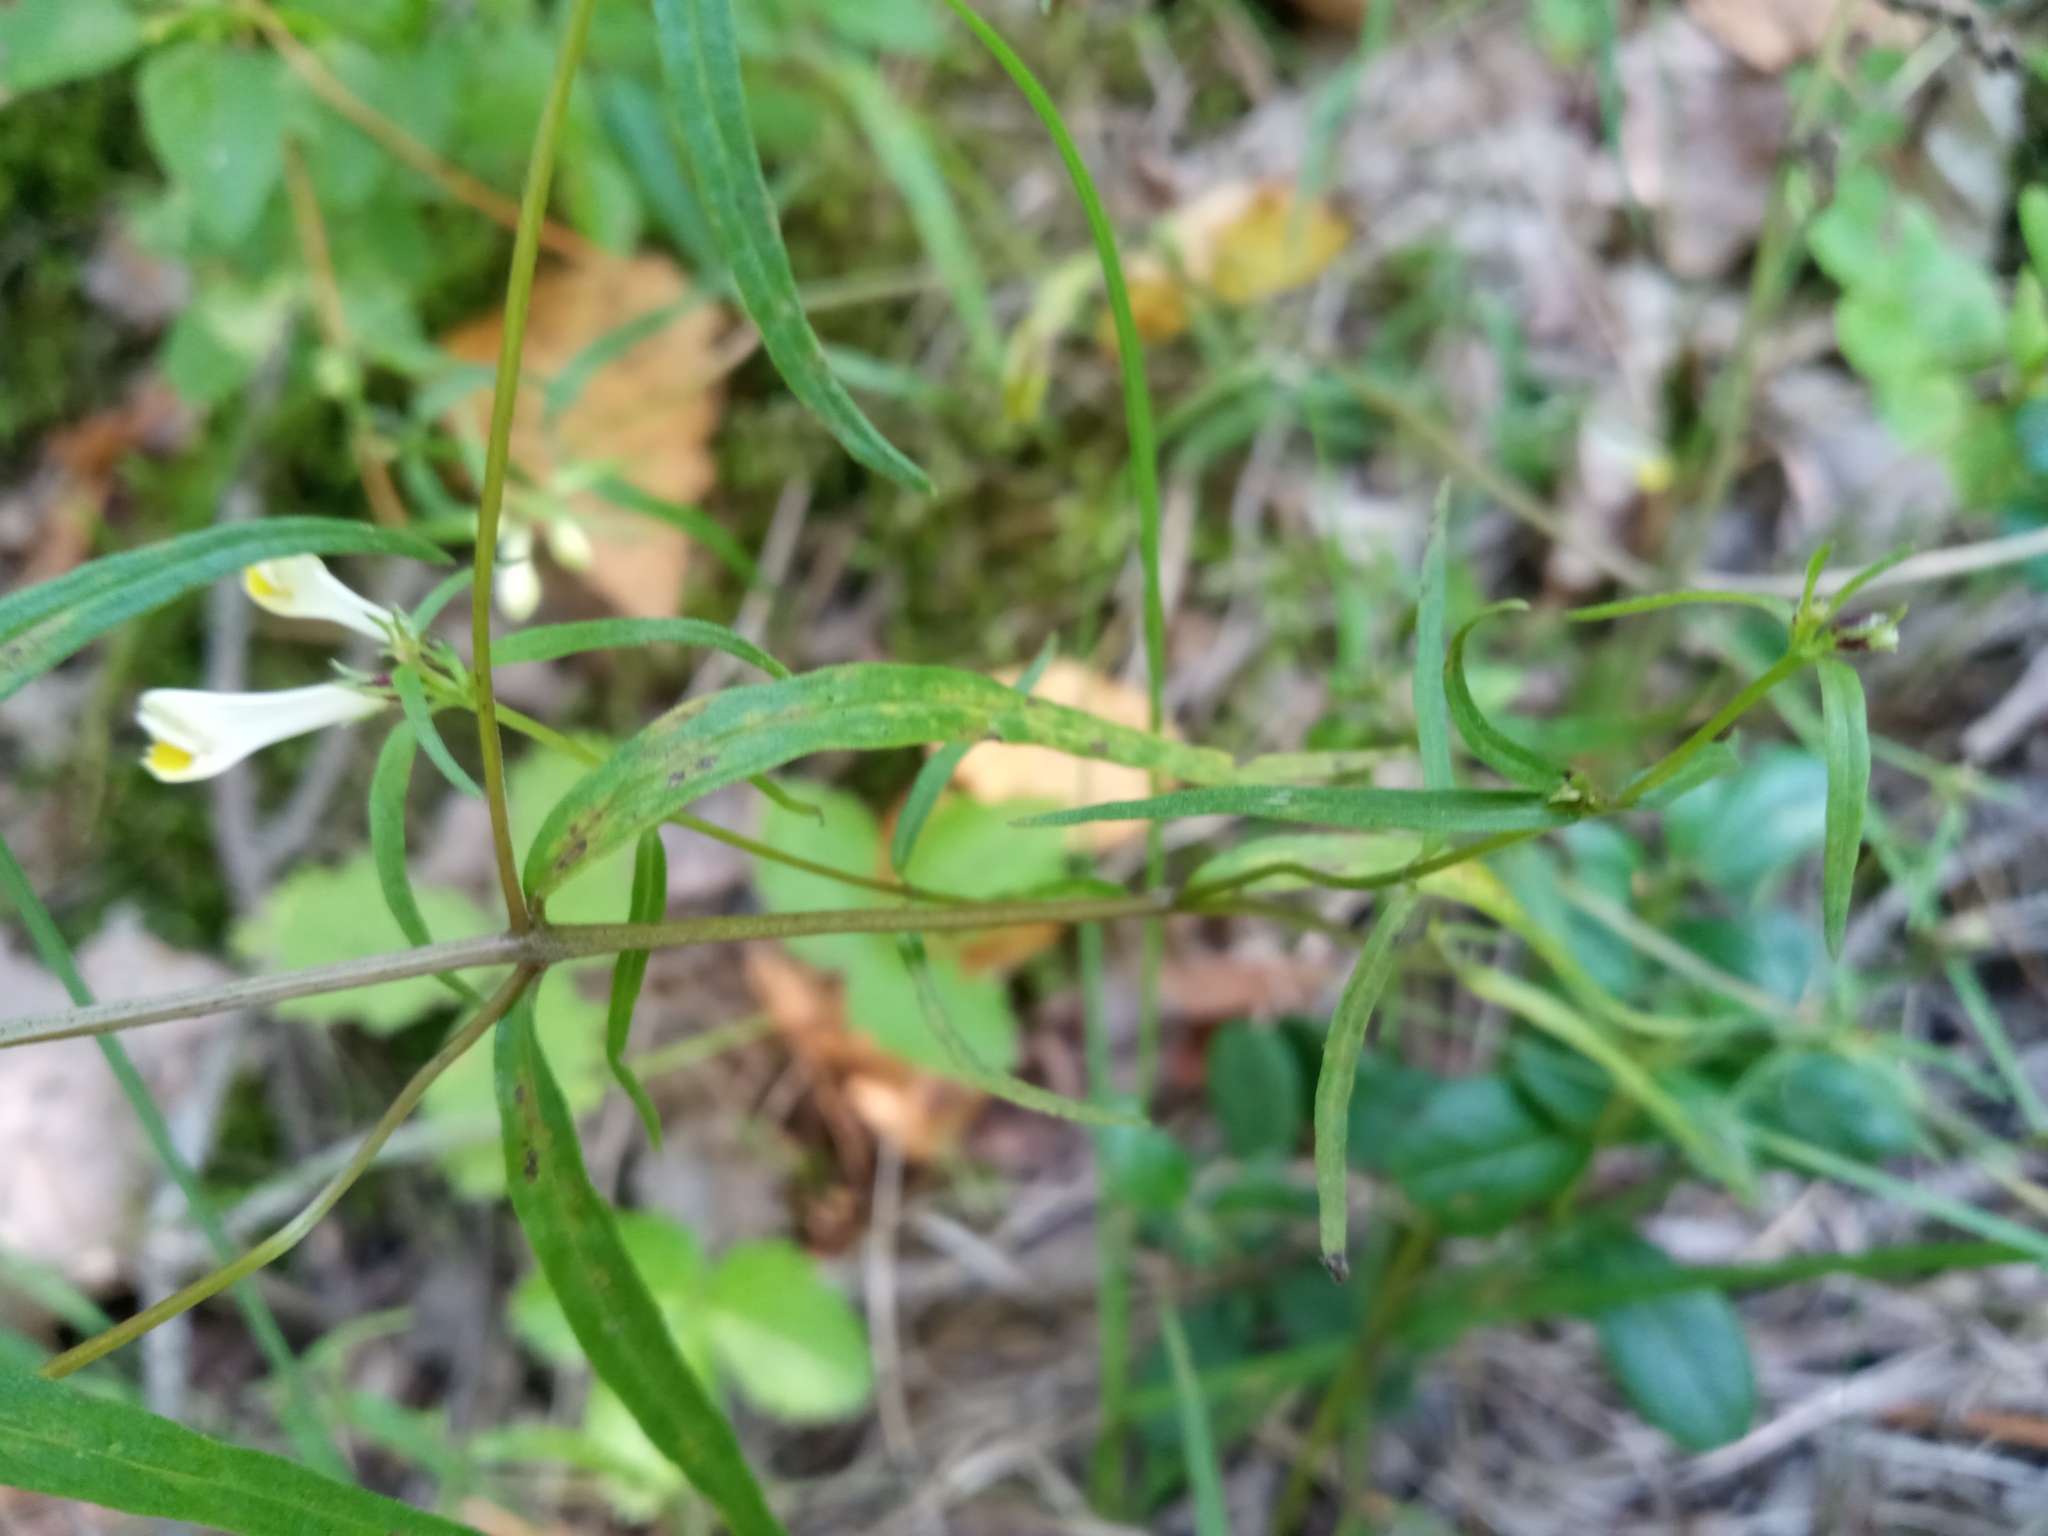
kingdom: Plantae
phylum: Tracheophyta
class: Magnoliopsida
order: Lamiales
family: Orobanchaceae
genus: Melampyrum
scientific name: Melampyrum pratense
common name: Common cow-wheat
